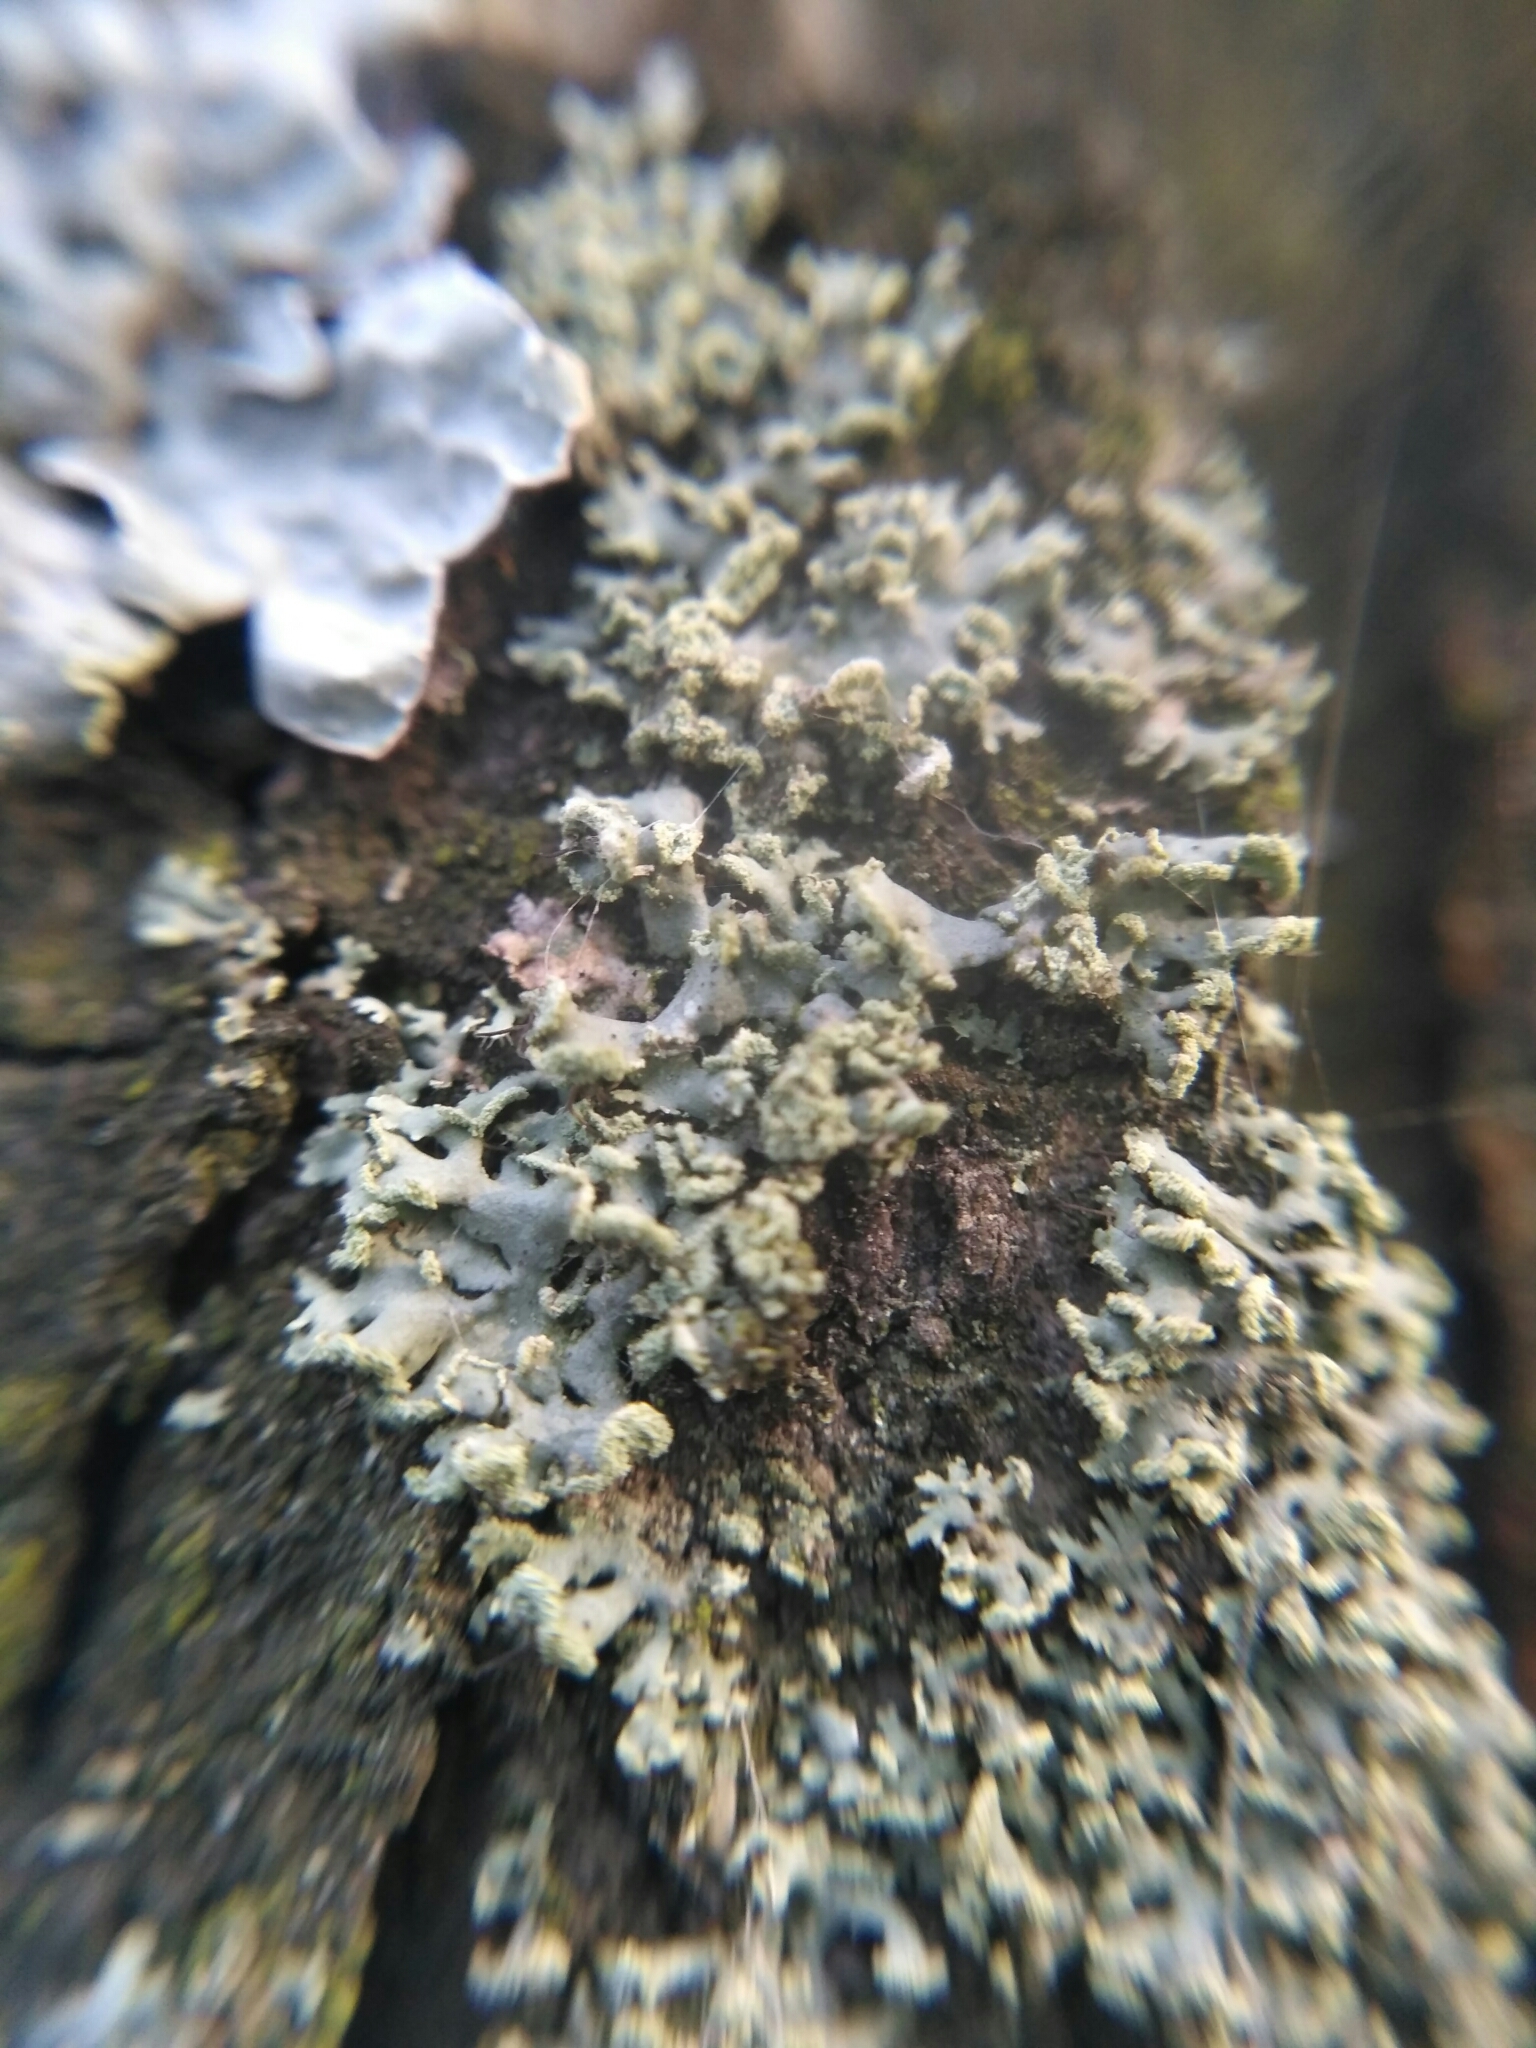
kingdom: Fungi
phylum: Ascomycota
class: Lecanoromycetes
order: Caliciales
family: Physciaceae
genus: Physcia
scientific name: Physcia tenella
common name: Fringed rosette lichen
